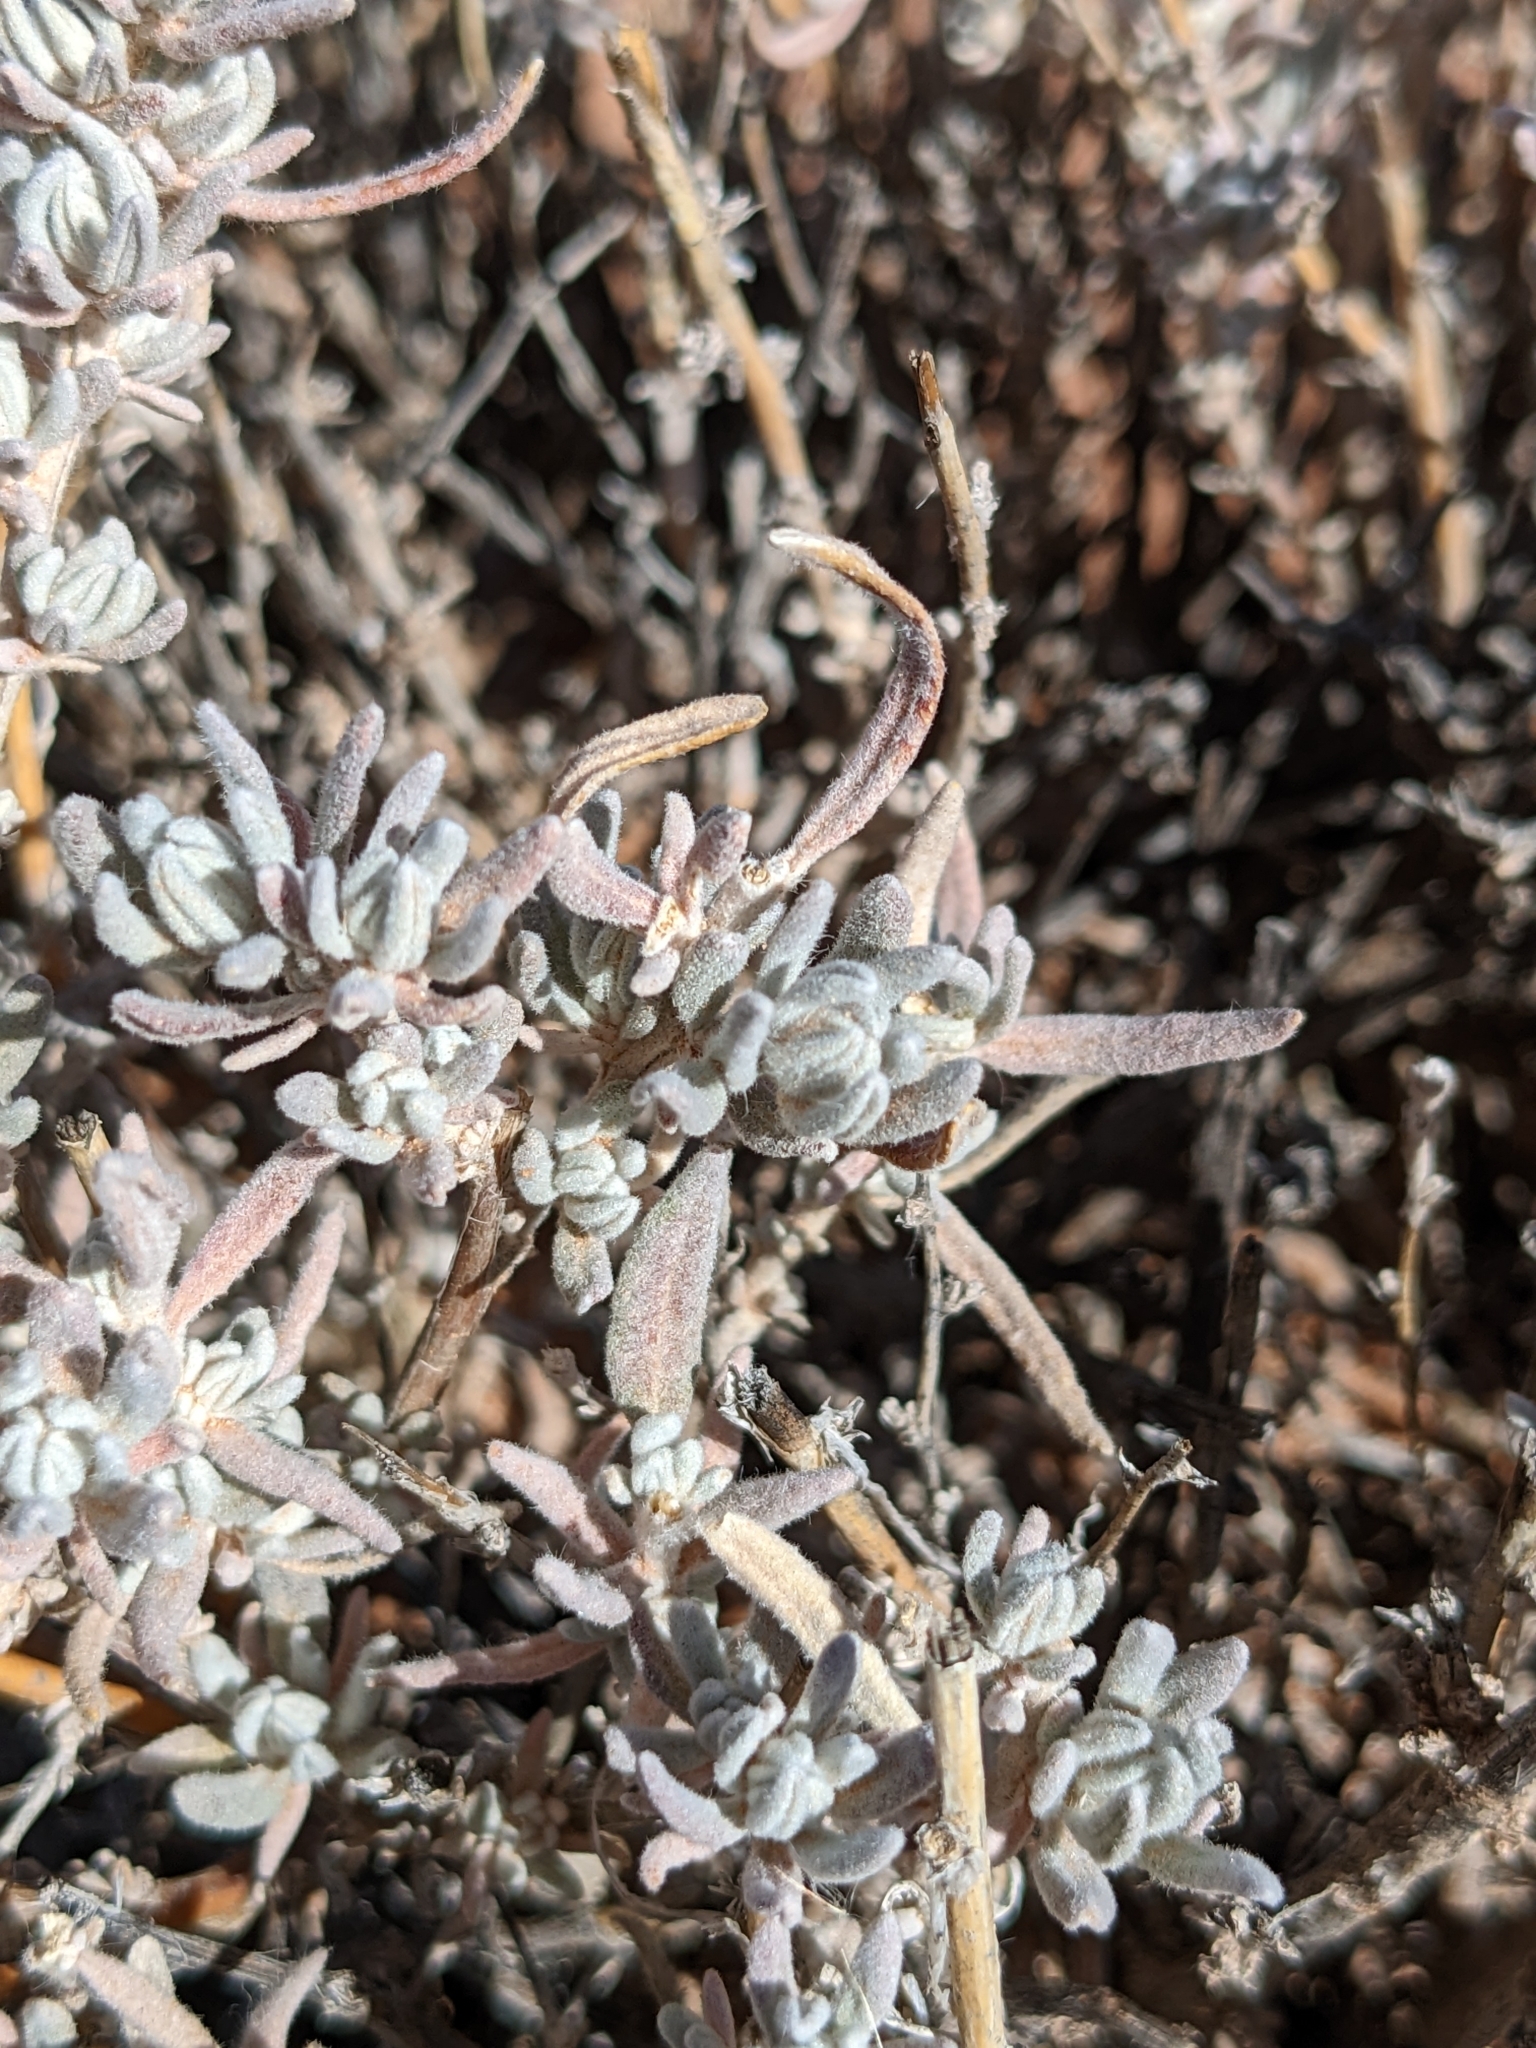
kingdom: Plantae
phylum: Tracheophyta
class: Magnoliopsida
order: Caryophyllales
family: Amaranthaceae
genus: Krascheninnikovia
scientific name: Krascheninnikovia lanata
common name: Winterfat
